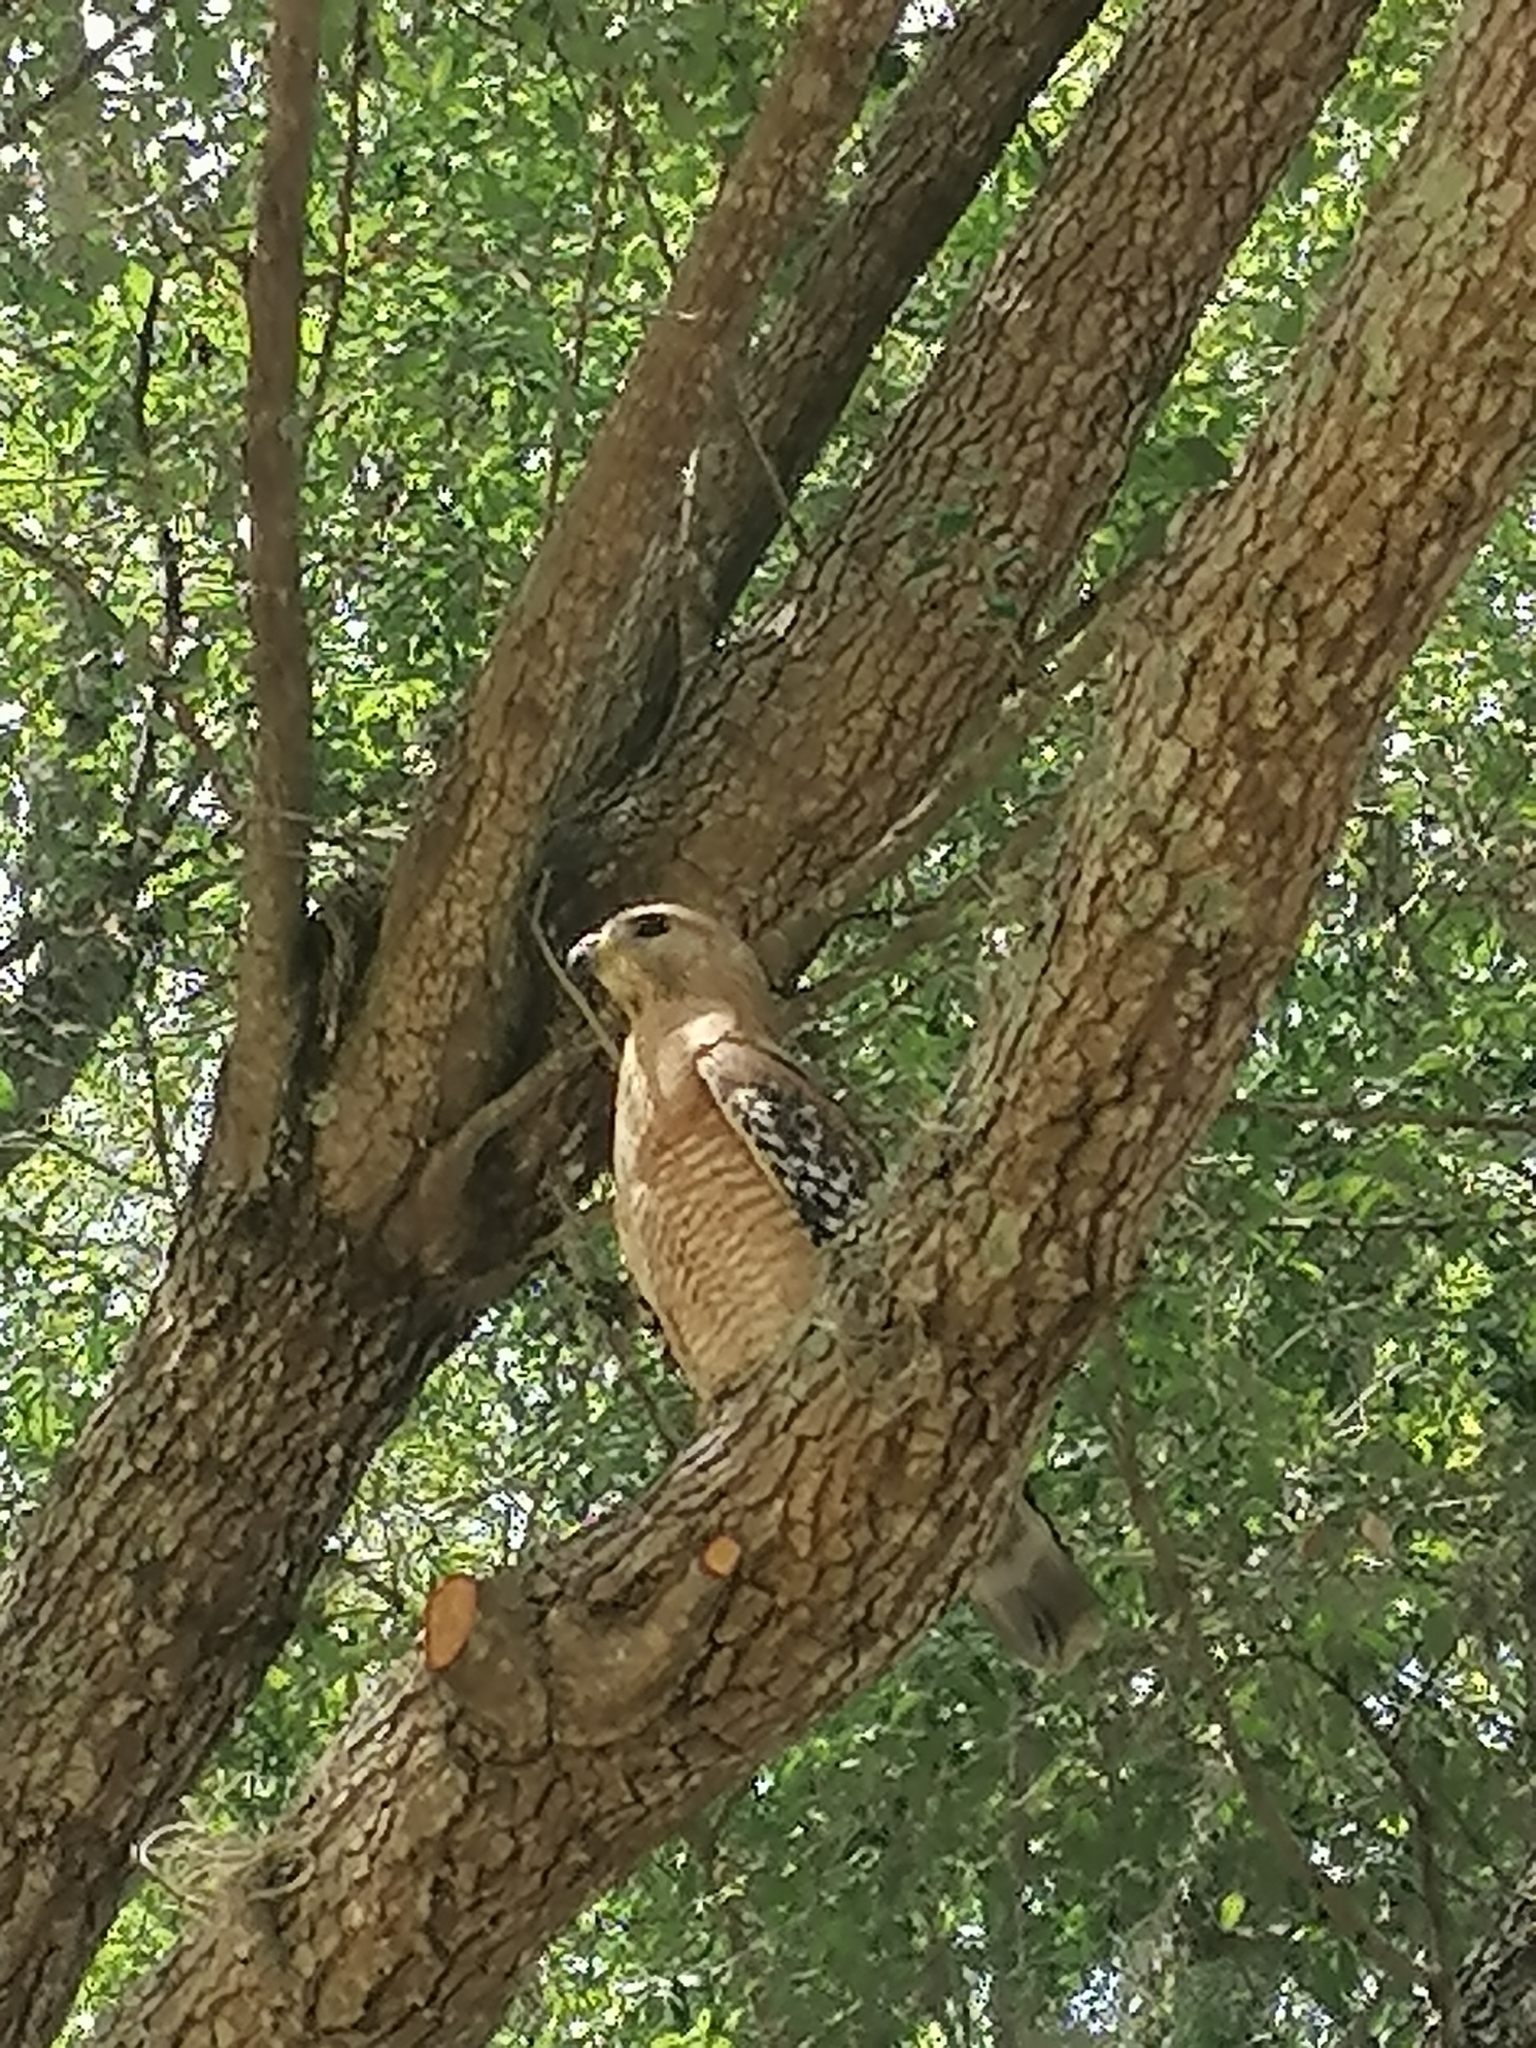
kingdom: Animalia
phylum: Chordata
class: Aves
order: Accipitriformes
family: Accipitridae
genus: Buteo
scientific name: Buteo lineatus
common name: Red-shouldered hawk
